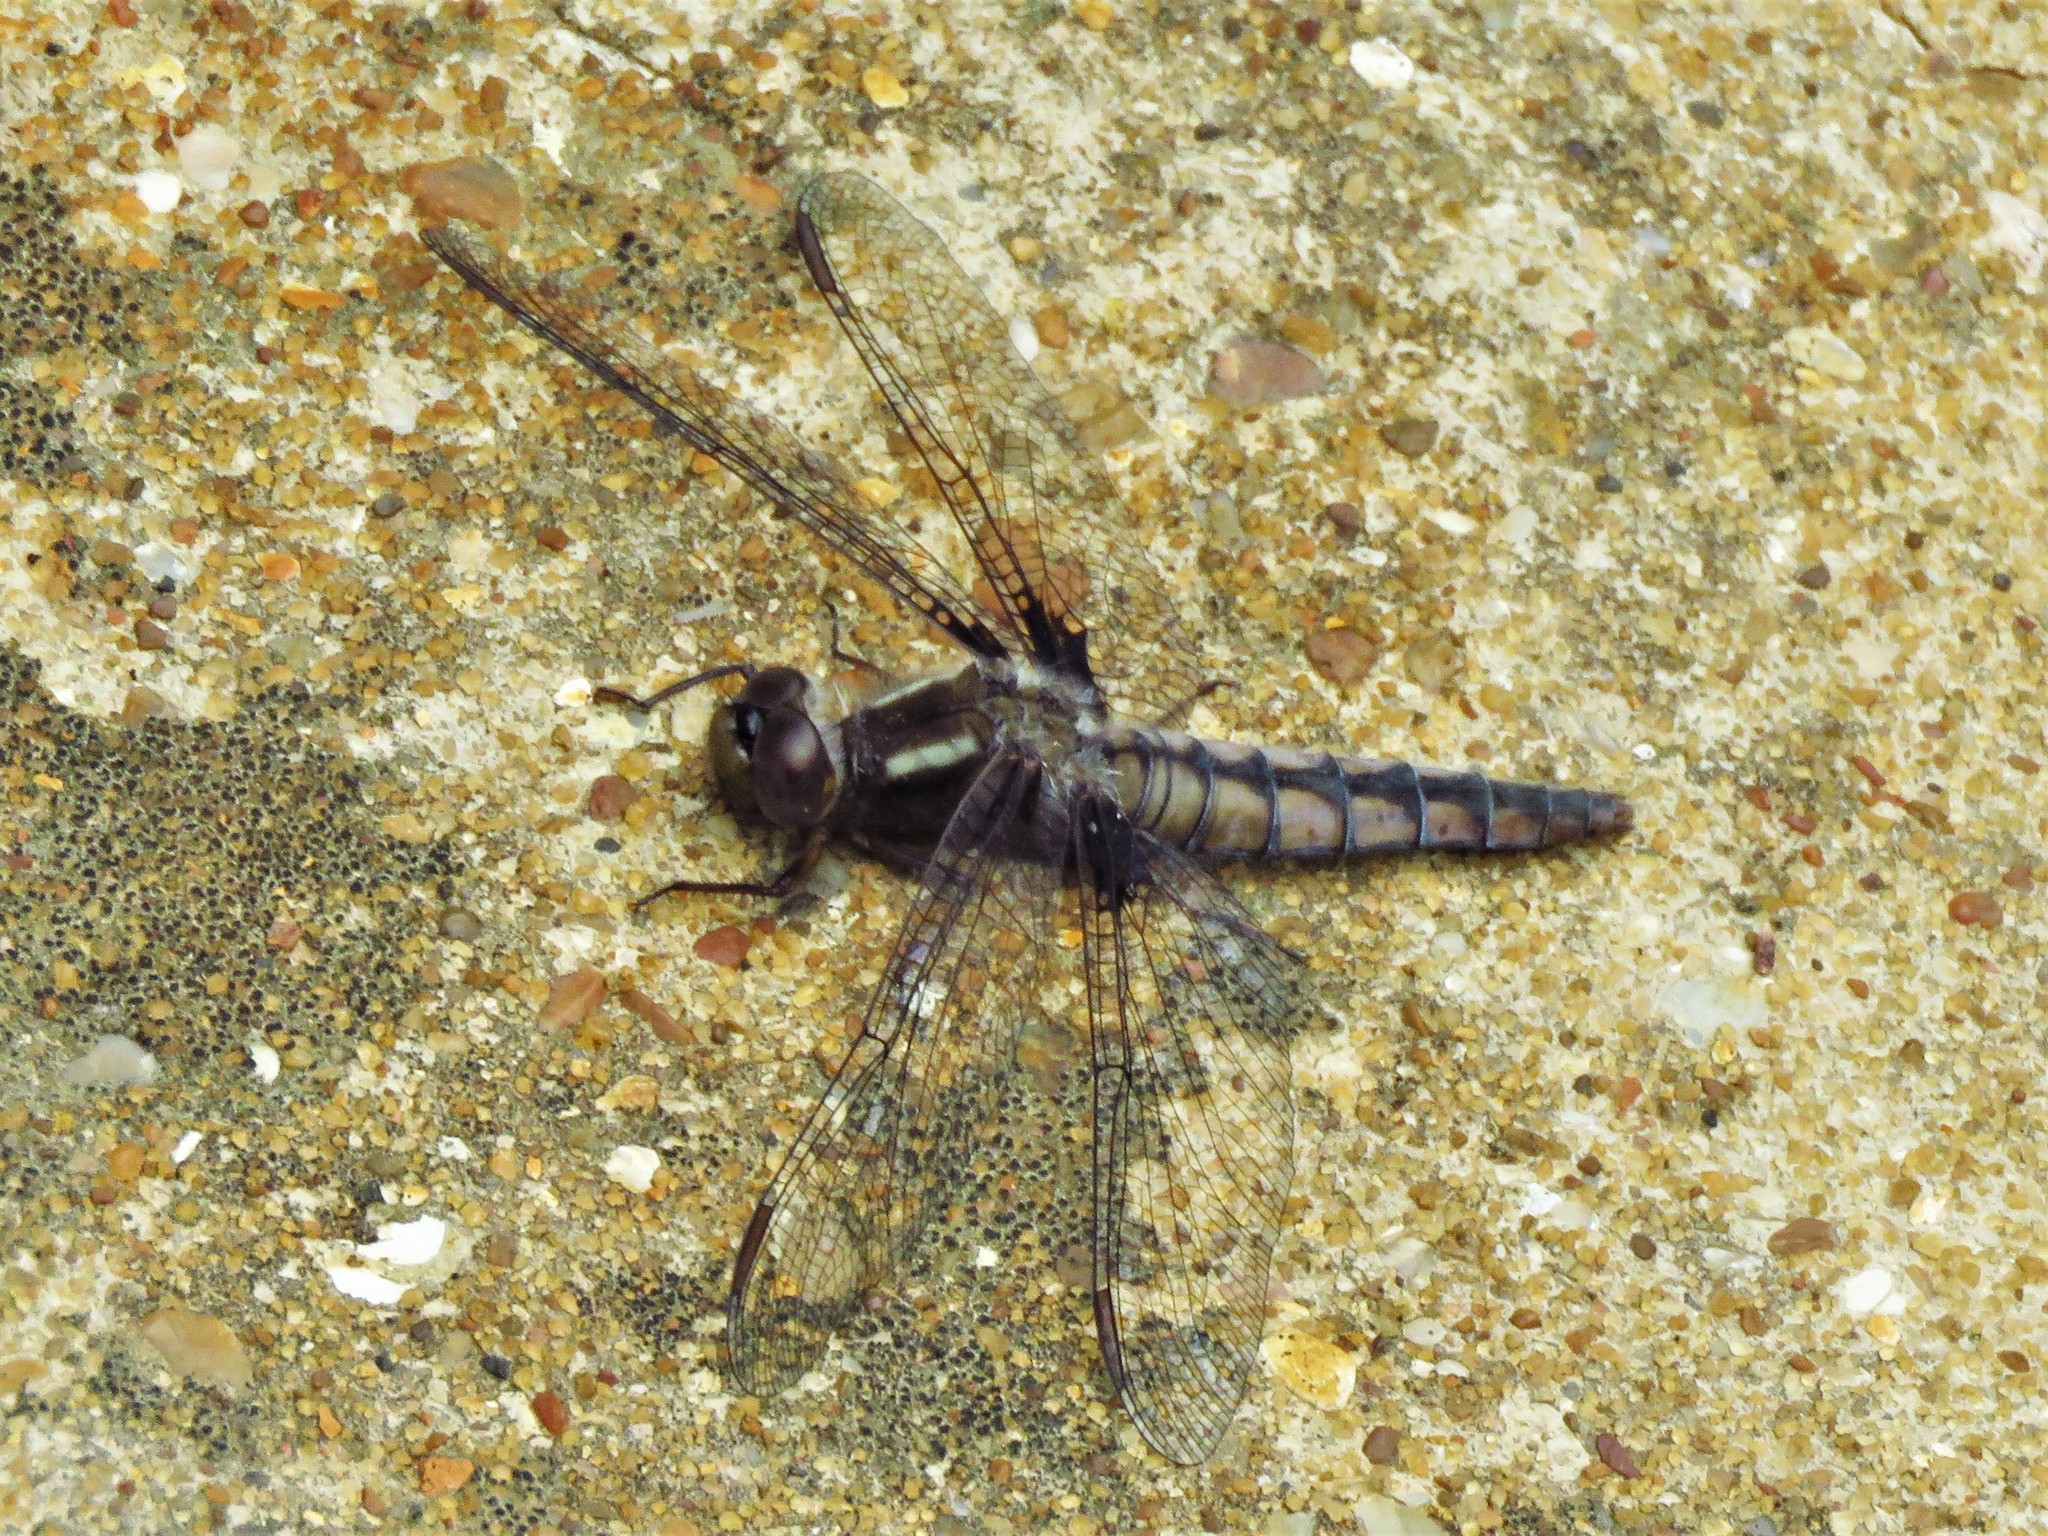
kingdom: Animalia
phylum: Arthropoda
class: Insecta
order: Odonata
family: Libellulidae
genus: Ladona
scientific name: Ladona deplanata
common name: Blue corporal
